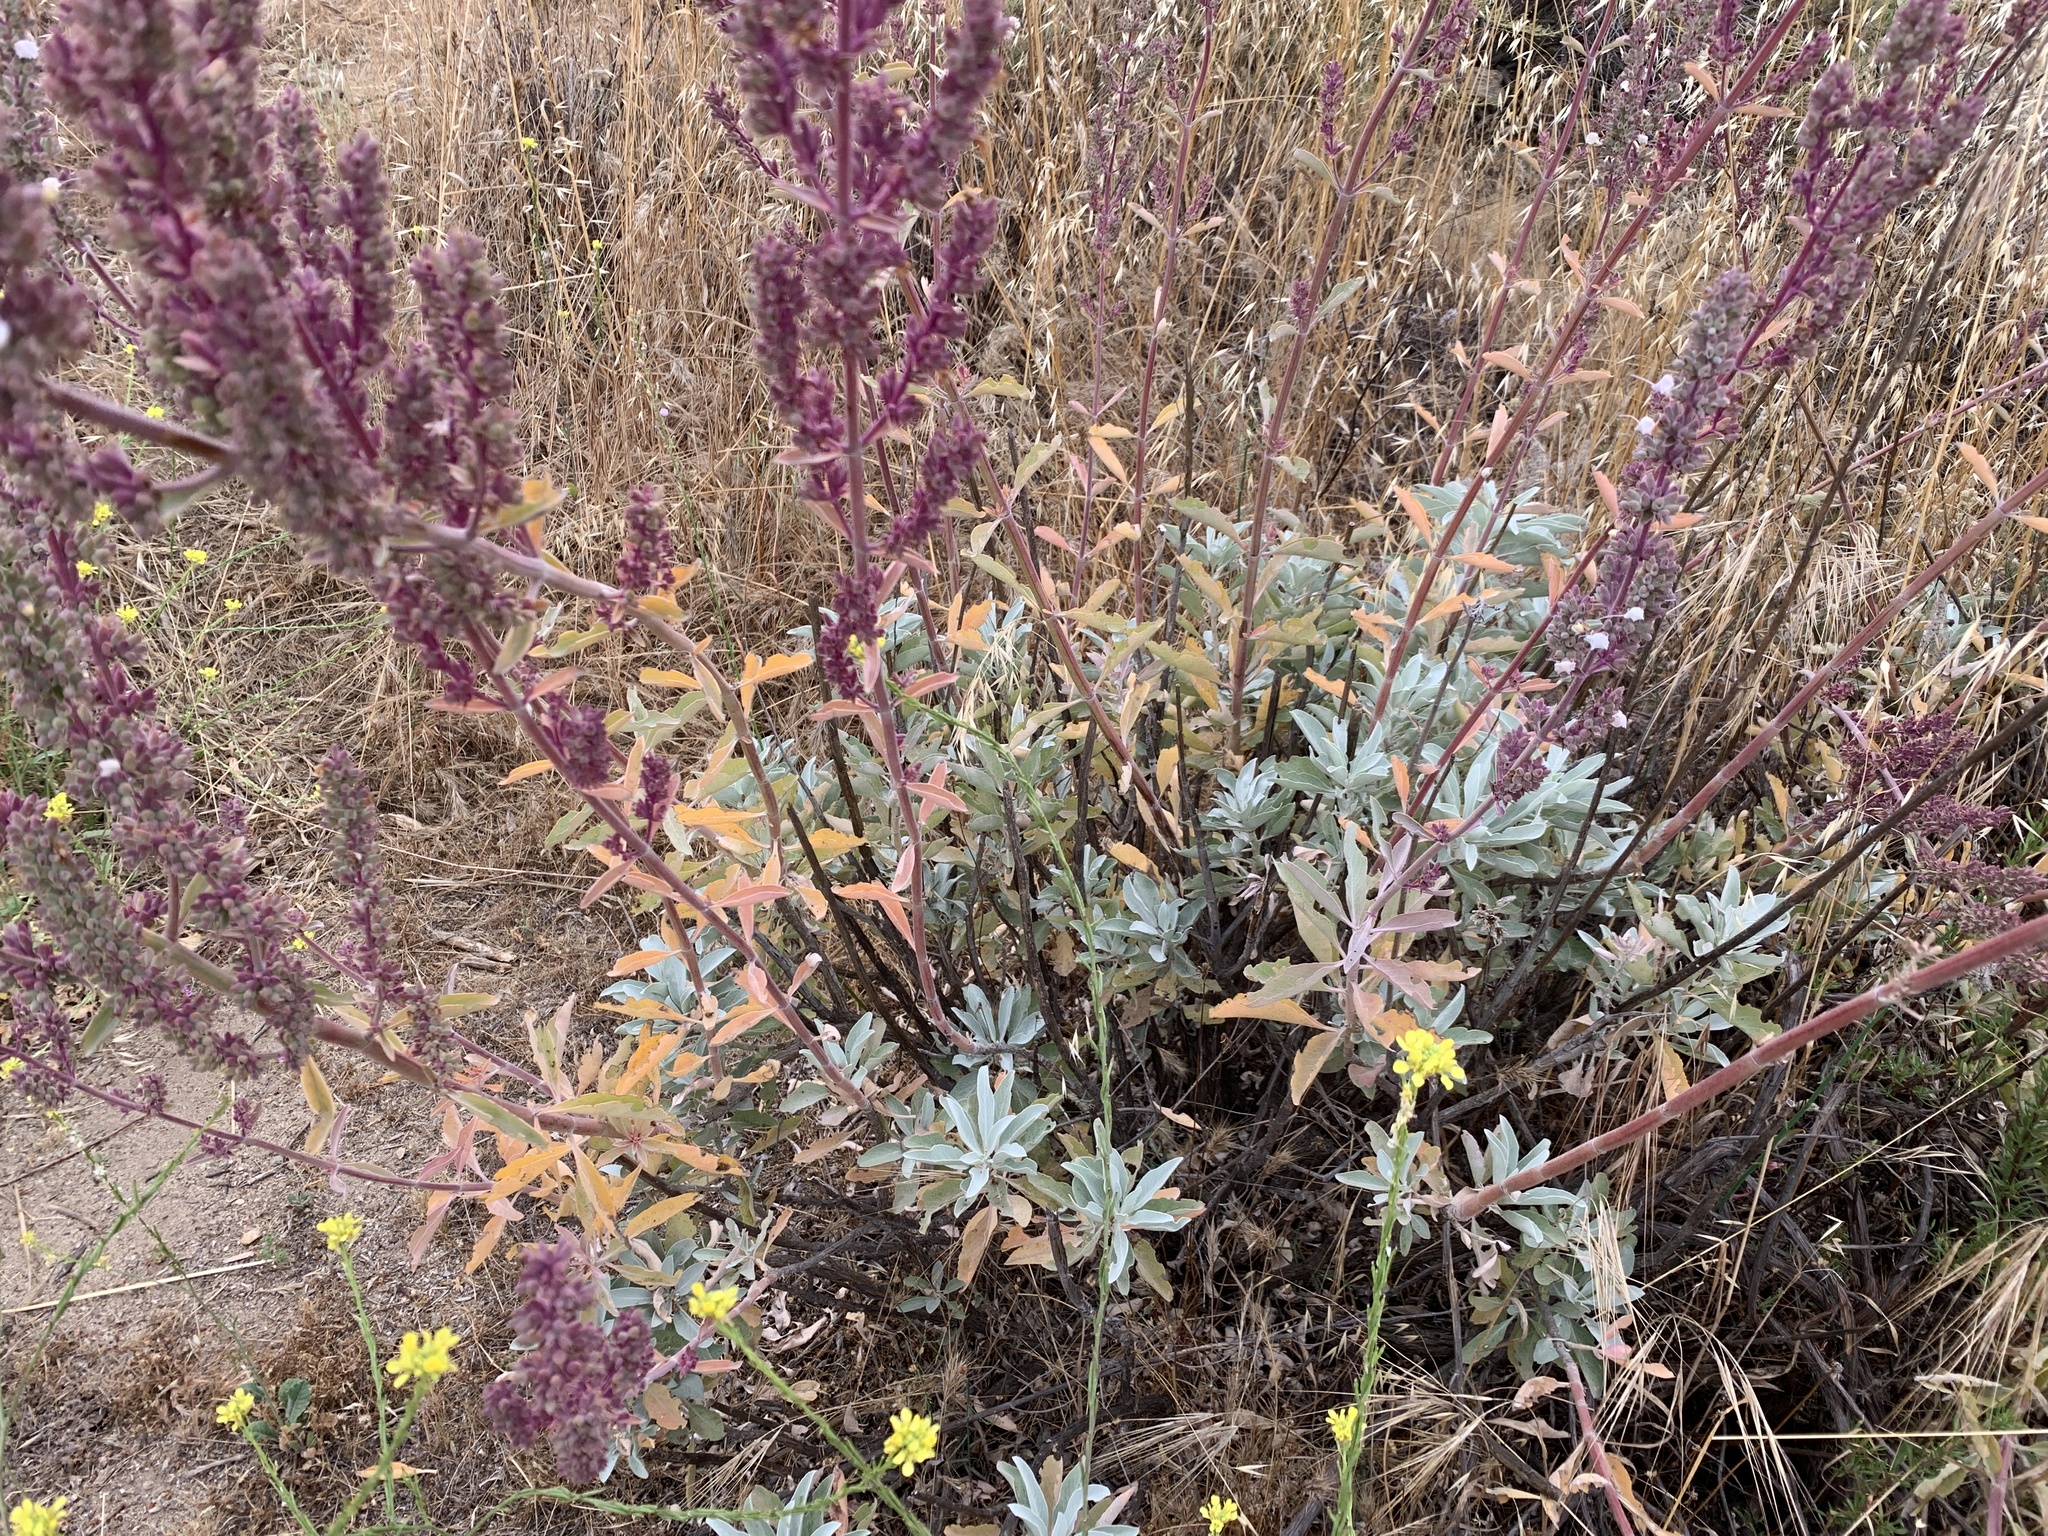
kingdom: Plantae
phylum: Tracheophyta
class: Magnoliopsida
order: Lamiales
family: Lamiaceae
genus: Salvia
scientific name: Salvia apiana
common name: White sage
